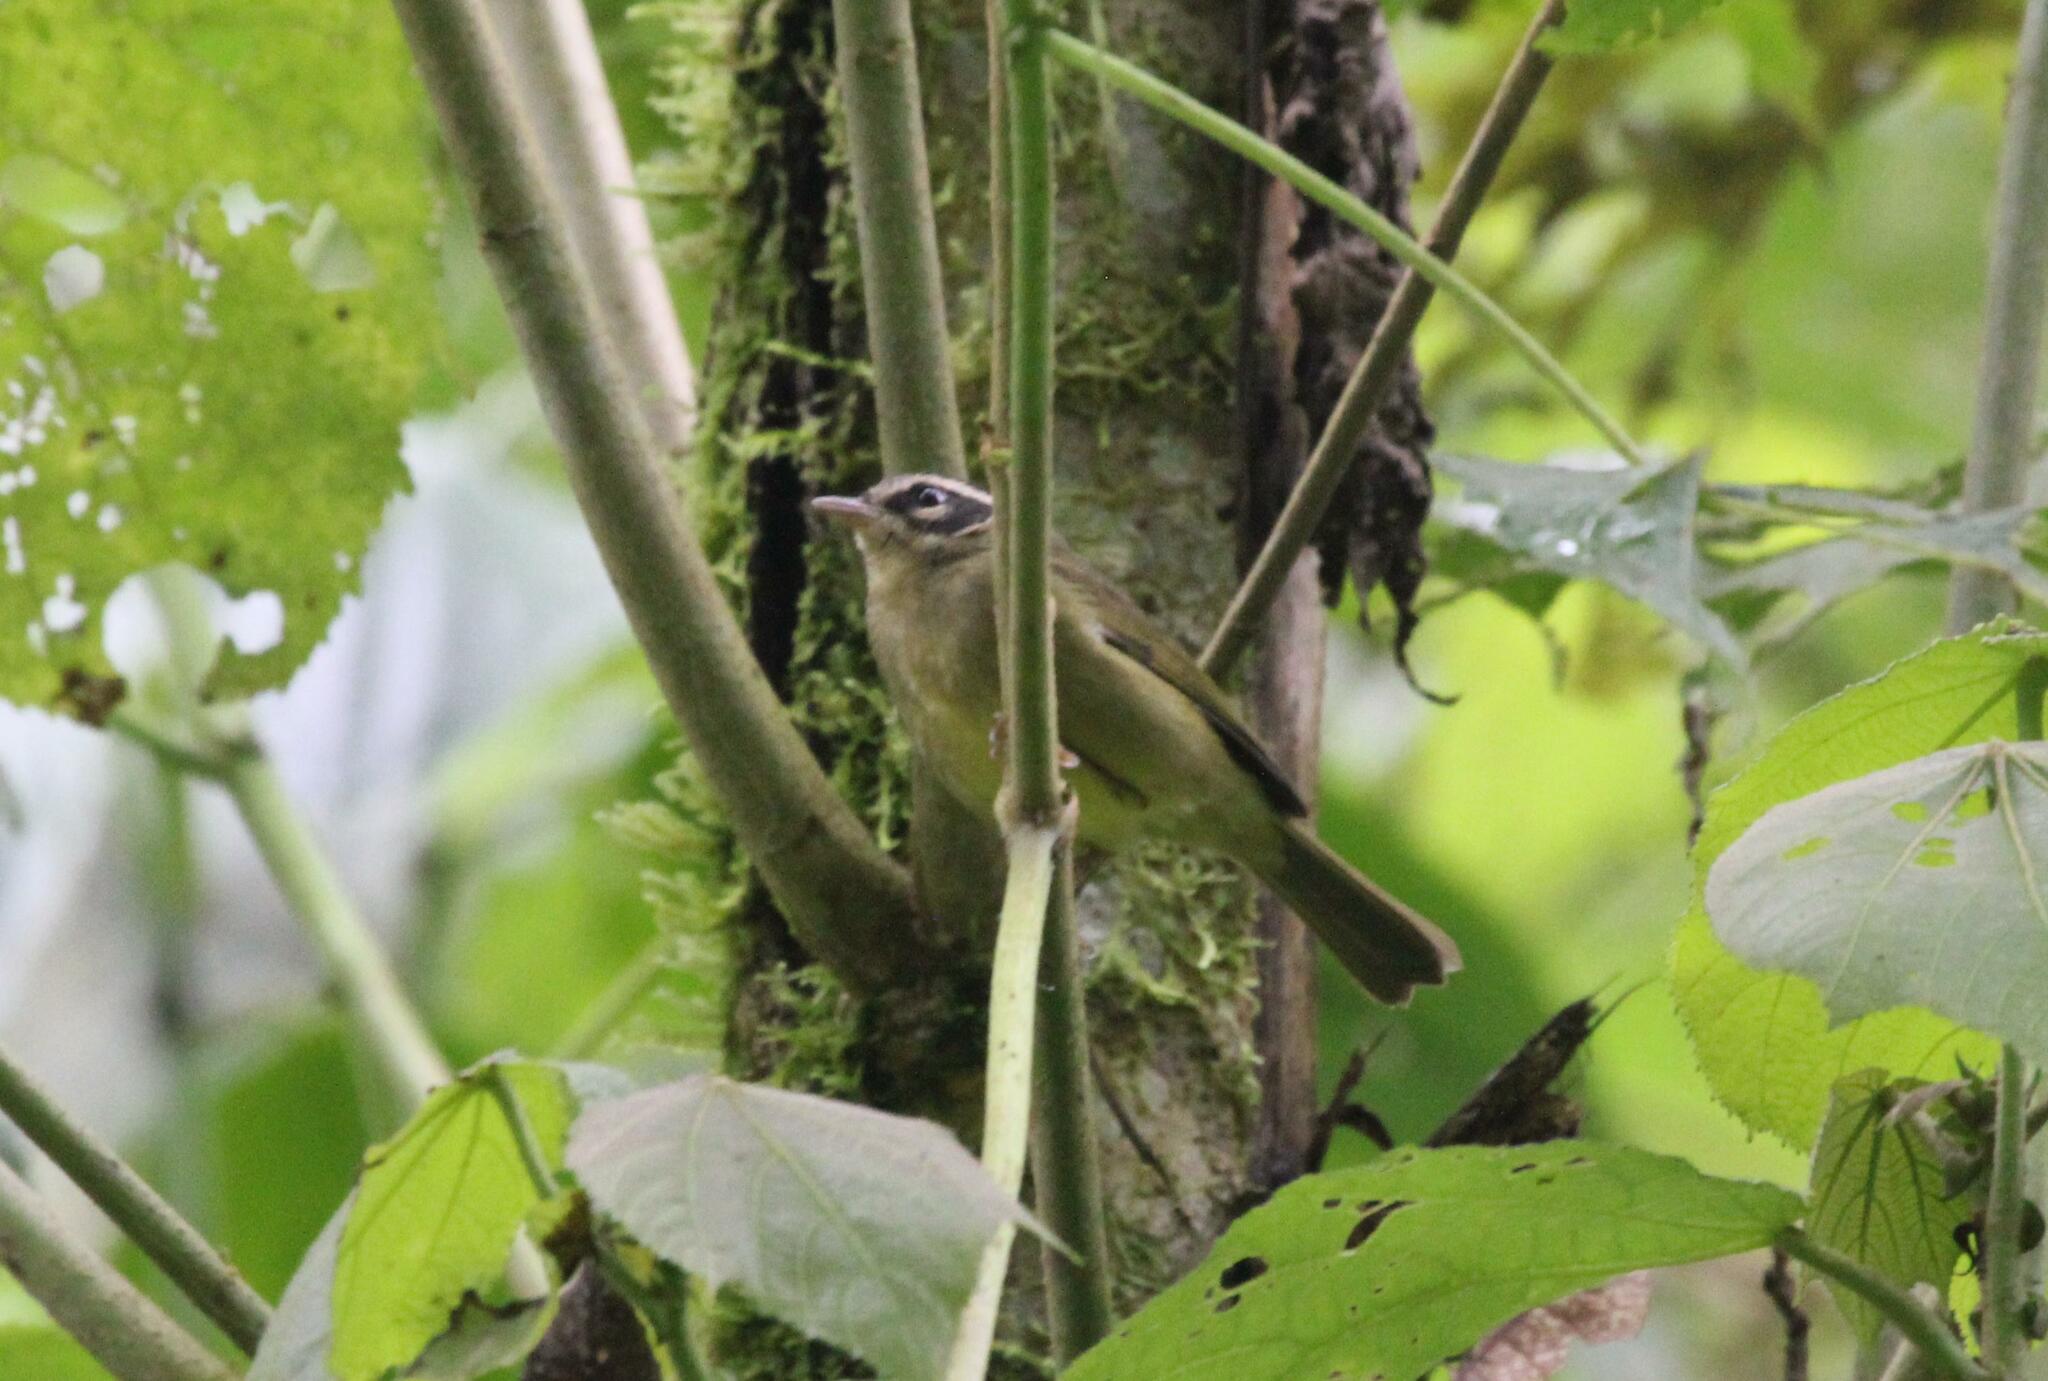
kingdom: Animalia
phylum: Chordata
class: Aves
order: Passeriformes
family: Parulidae
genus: Basileuterus
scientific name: Basileuterus tristriatus
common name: Three-striped warbler
